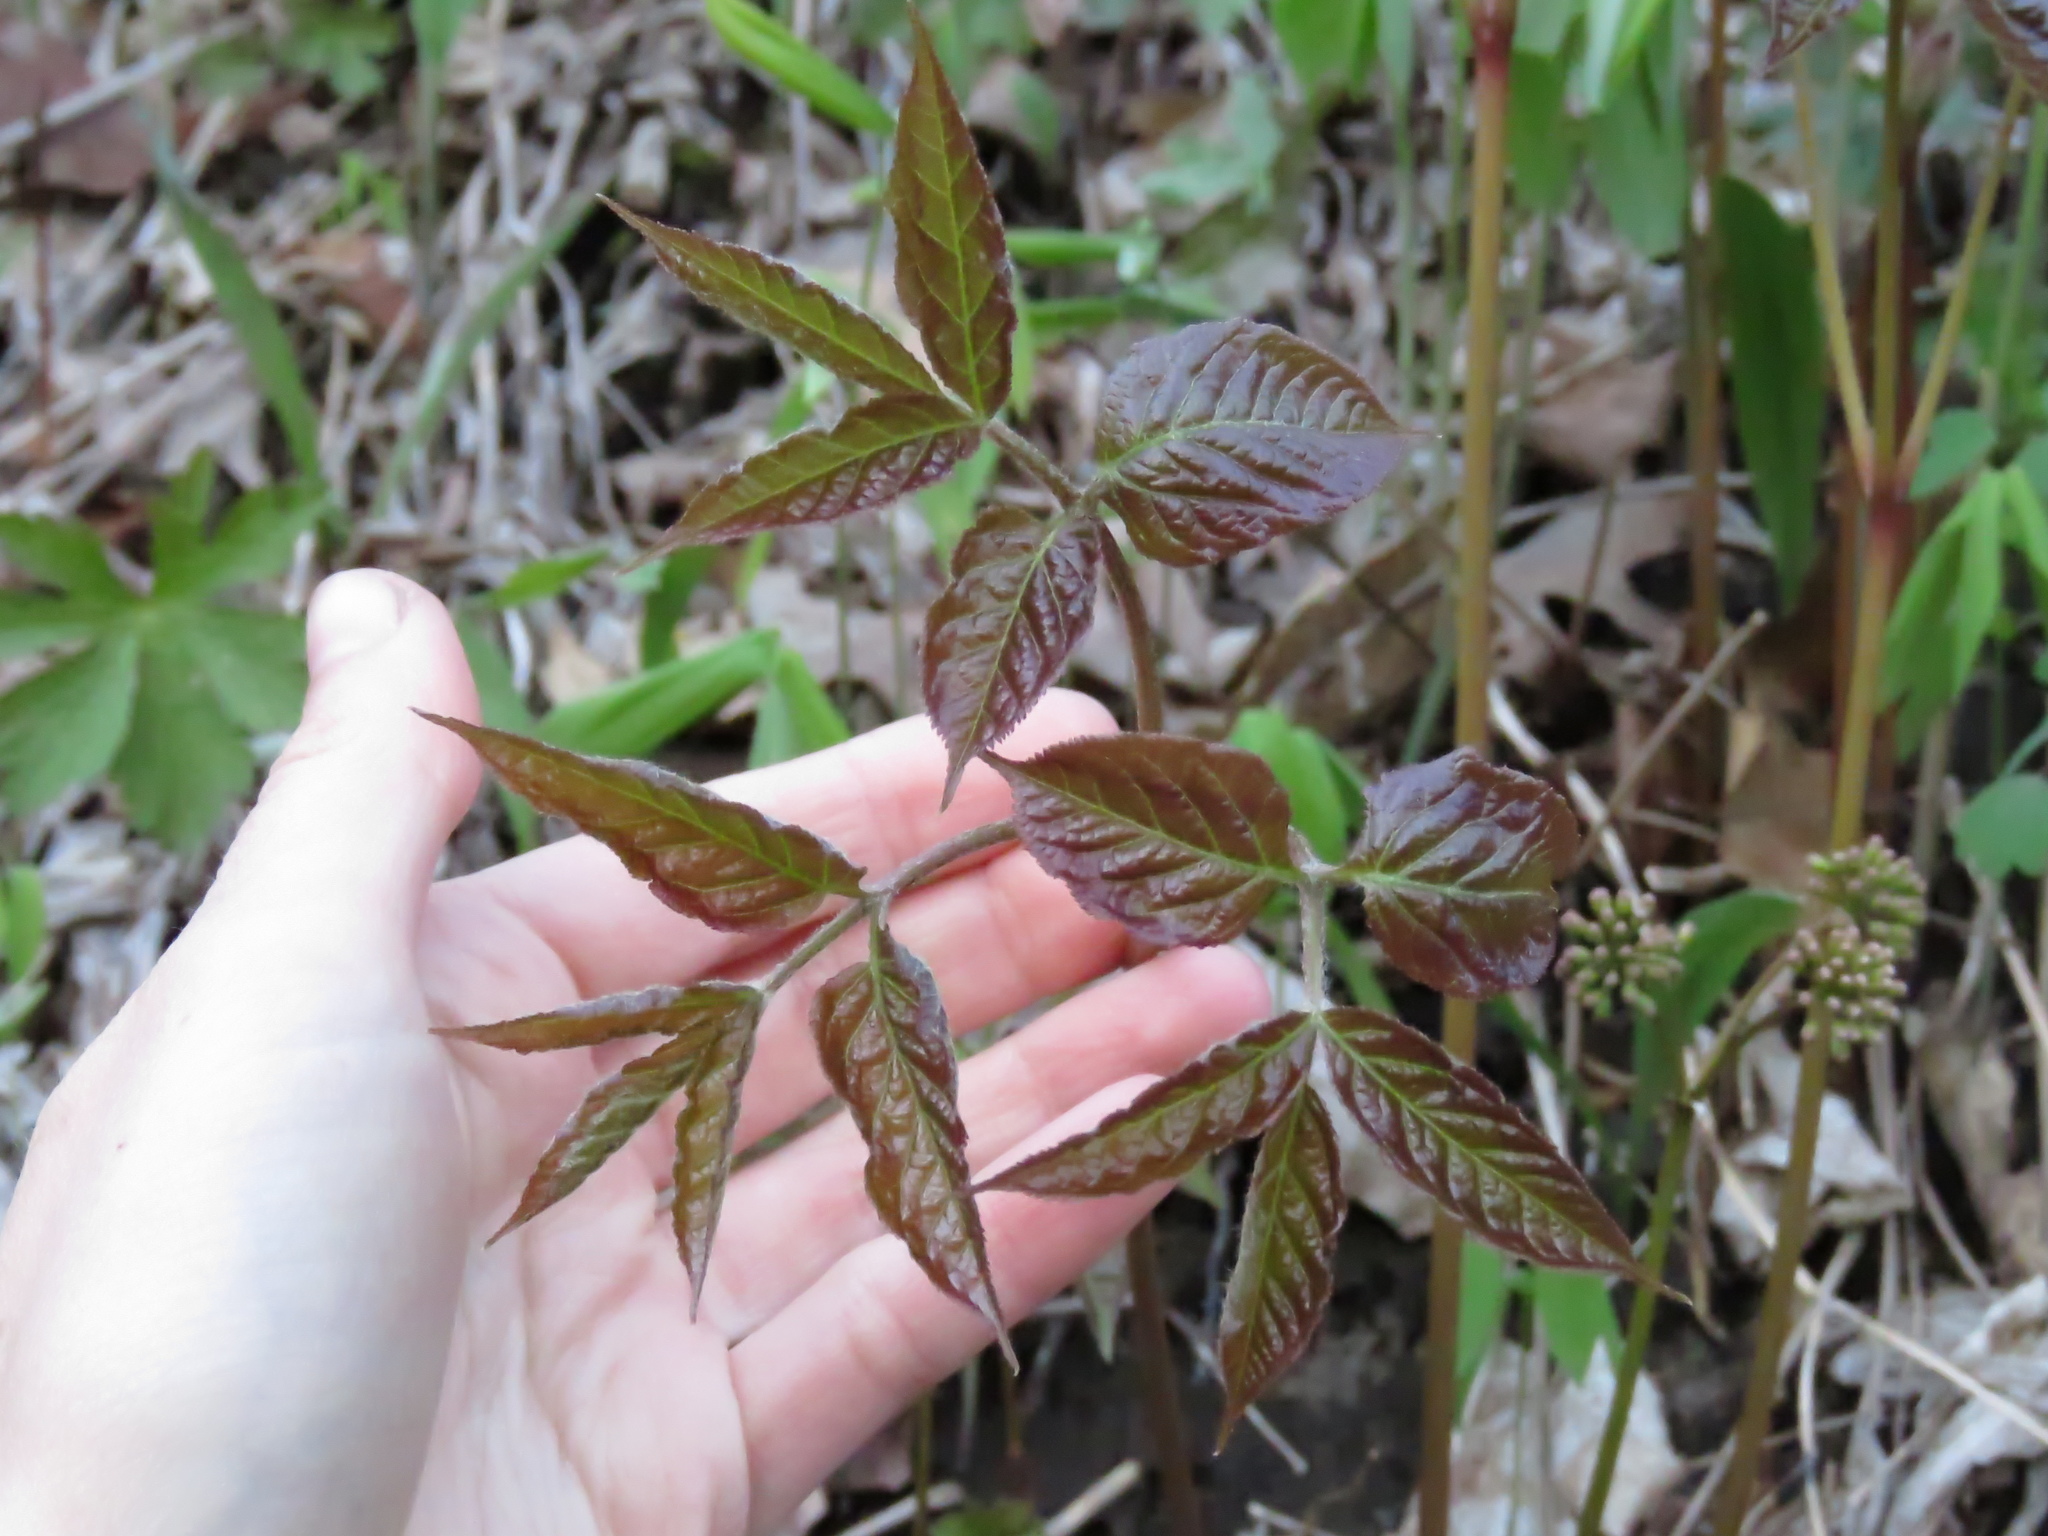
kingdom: Plantae
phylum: Tracheophyta
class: Magnoliopsida
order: Apiales
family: Araliaceae
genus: Aralia
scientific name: Aralia nudicaulis
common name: Wild sarsaparilla
